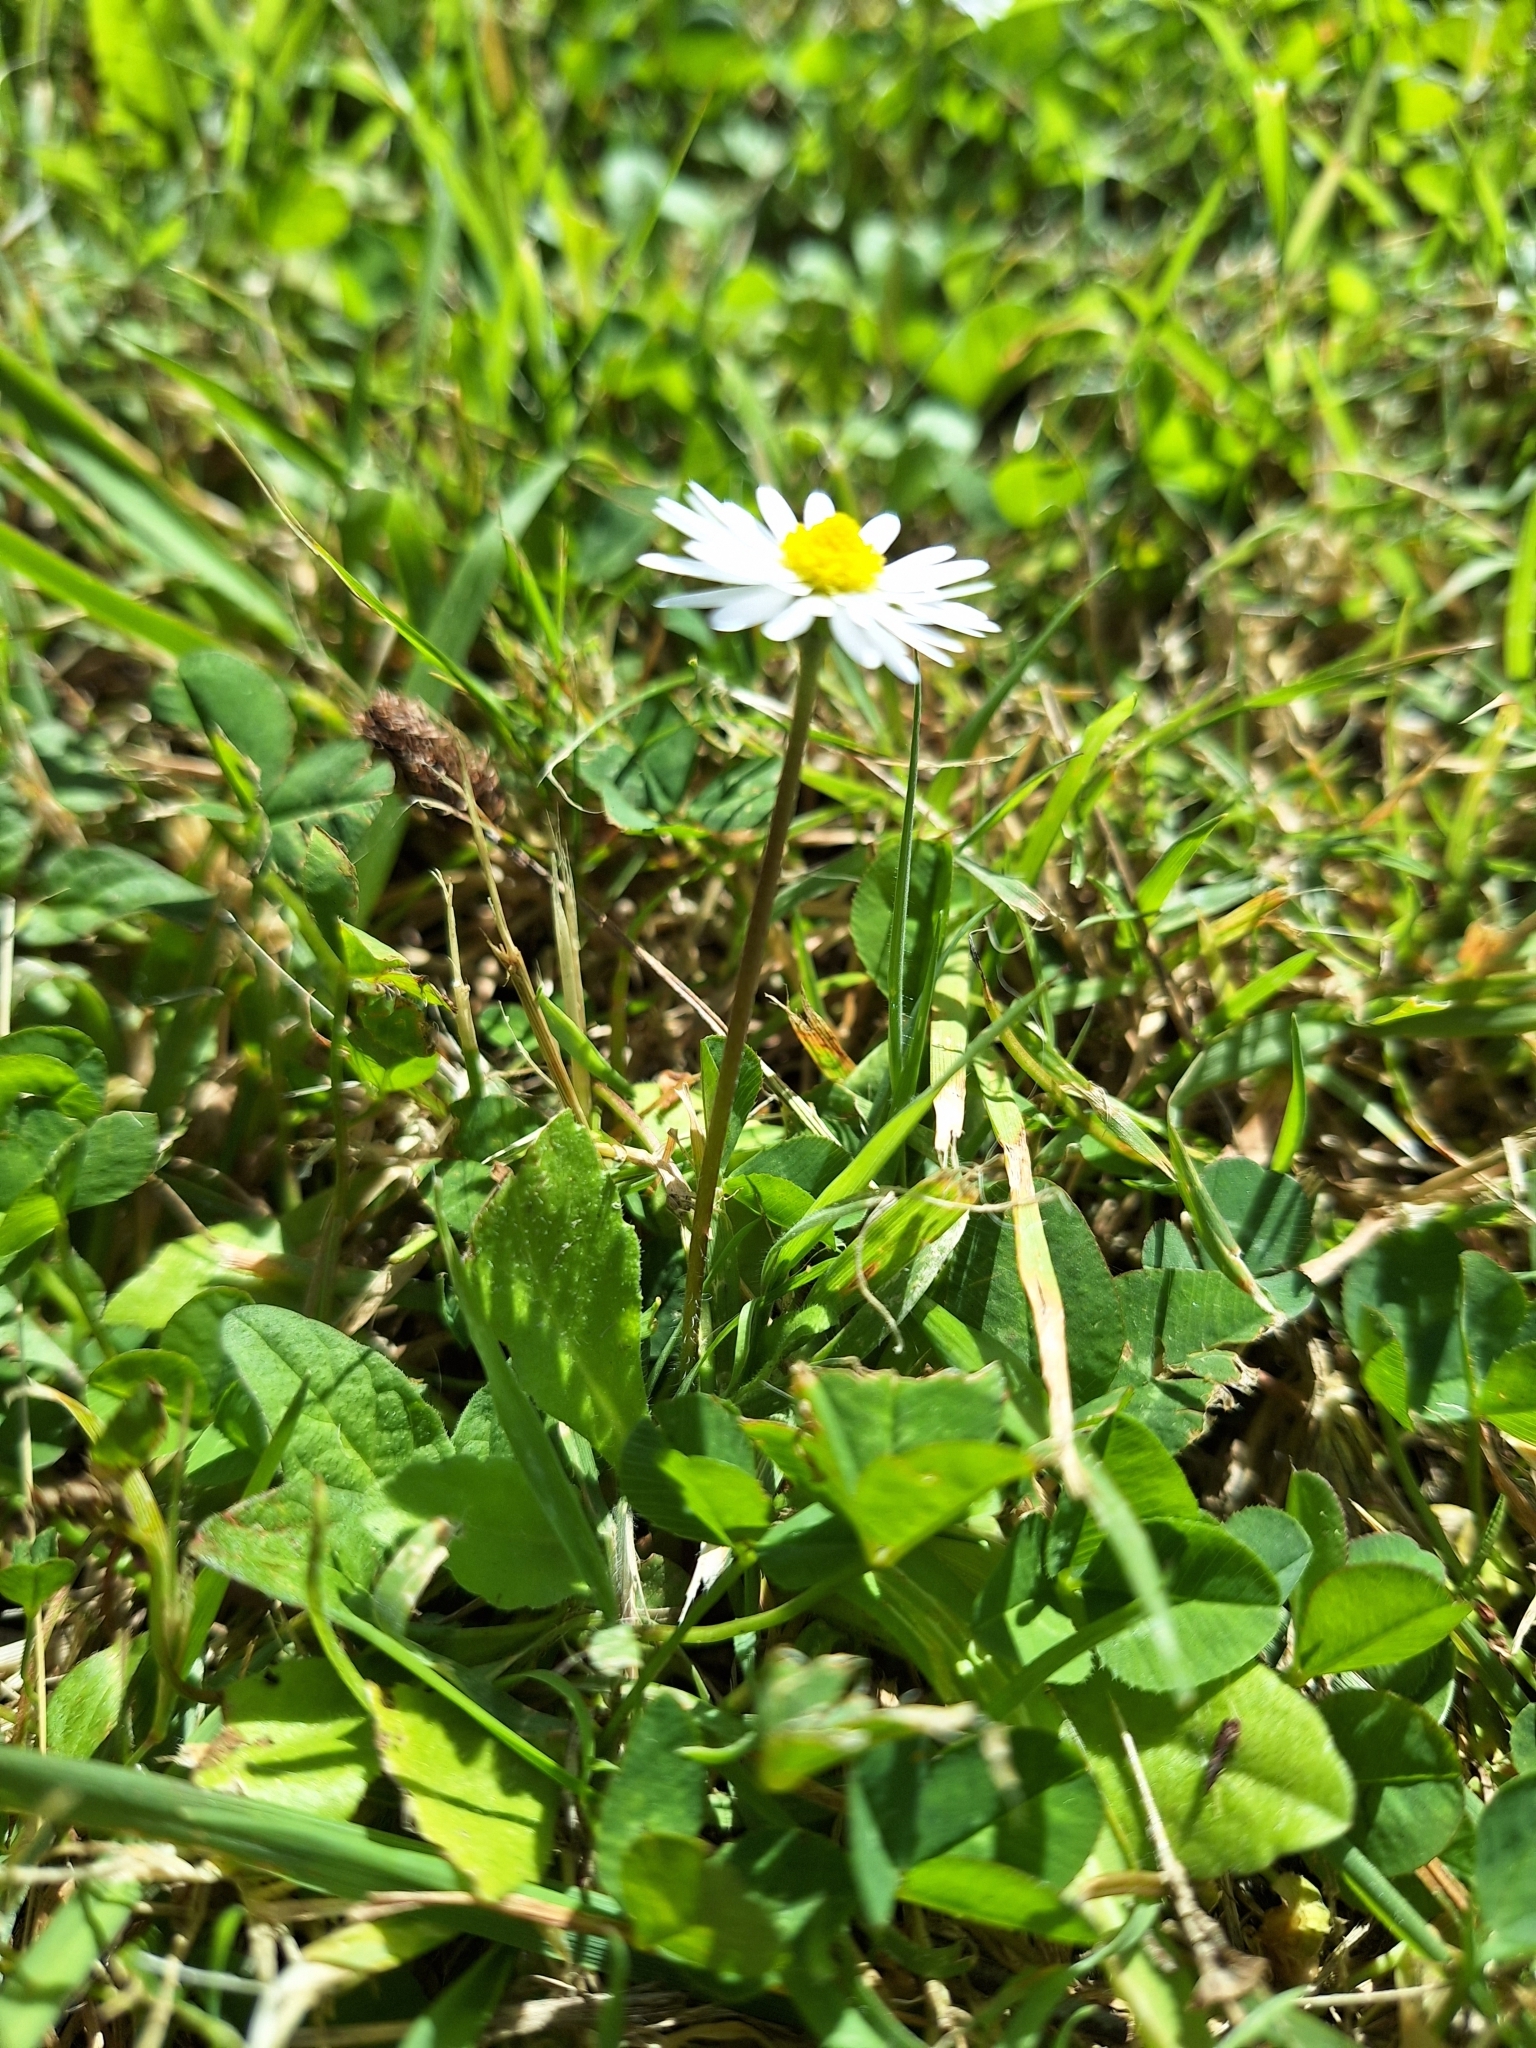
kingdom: Plantae
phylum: Tracheophyta
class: Magnoliopsida
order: Asterales
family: Asteraceae
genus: Bellis
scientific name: Bellis perennis
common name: Lawndaisy
